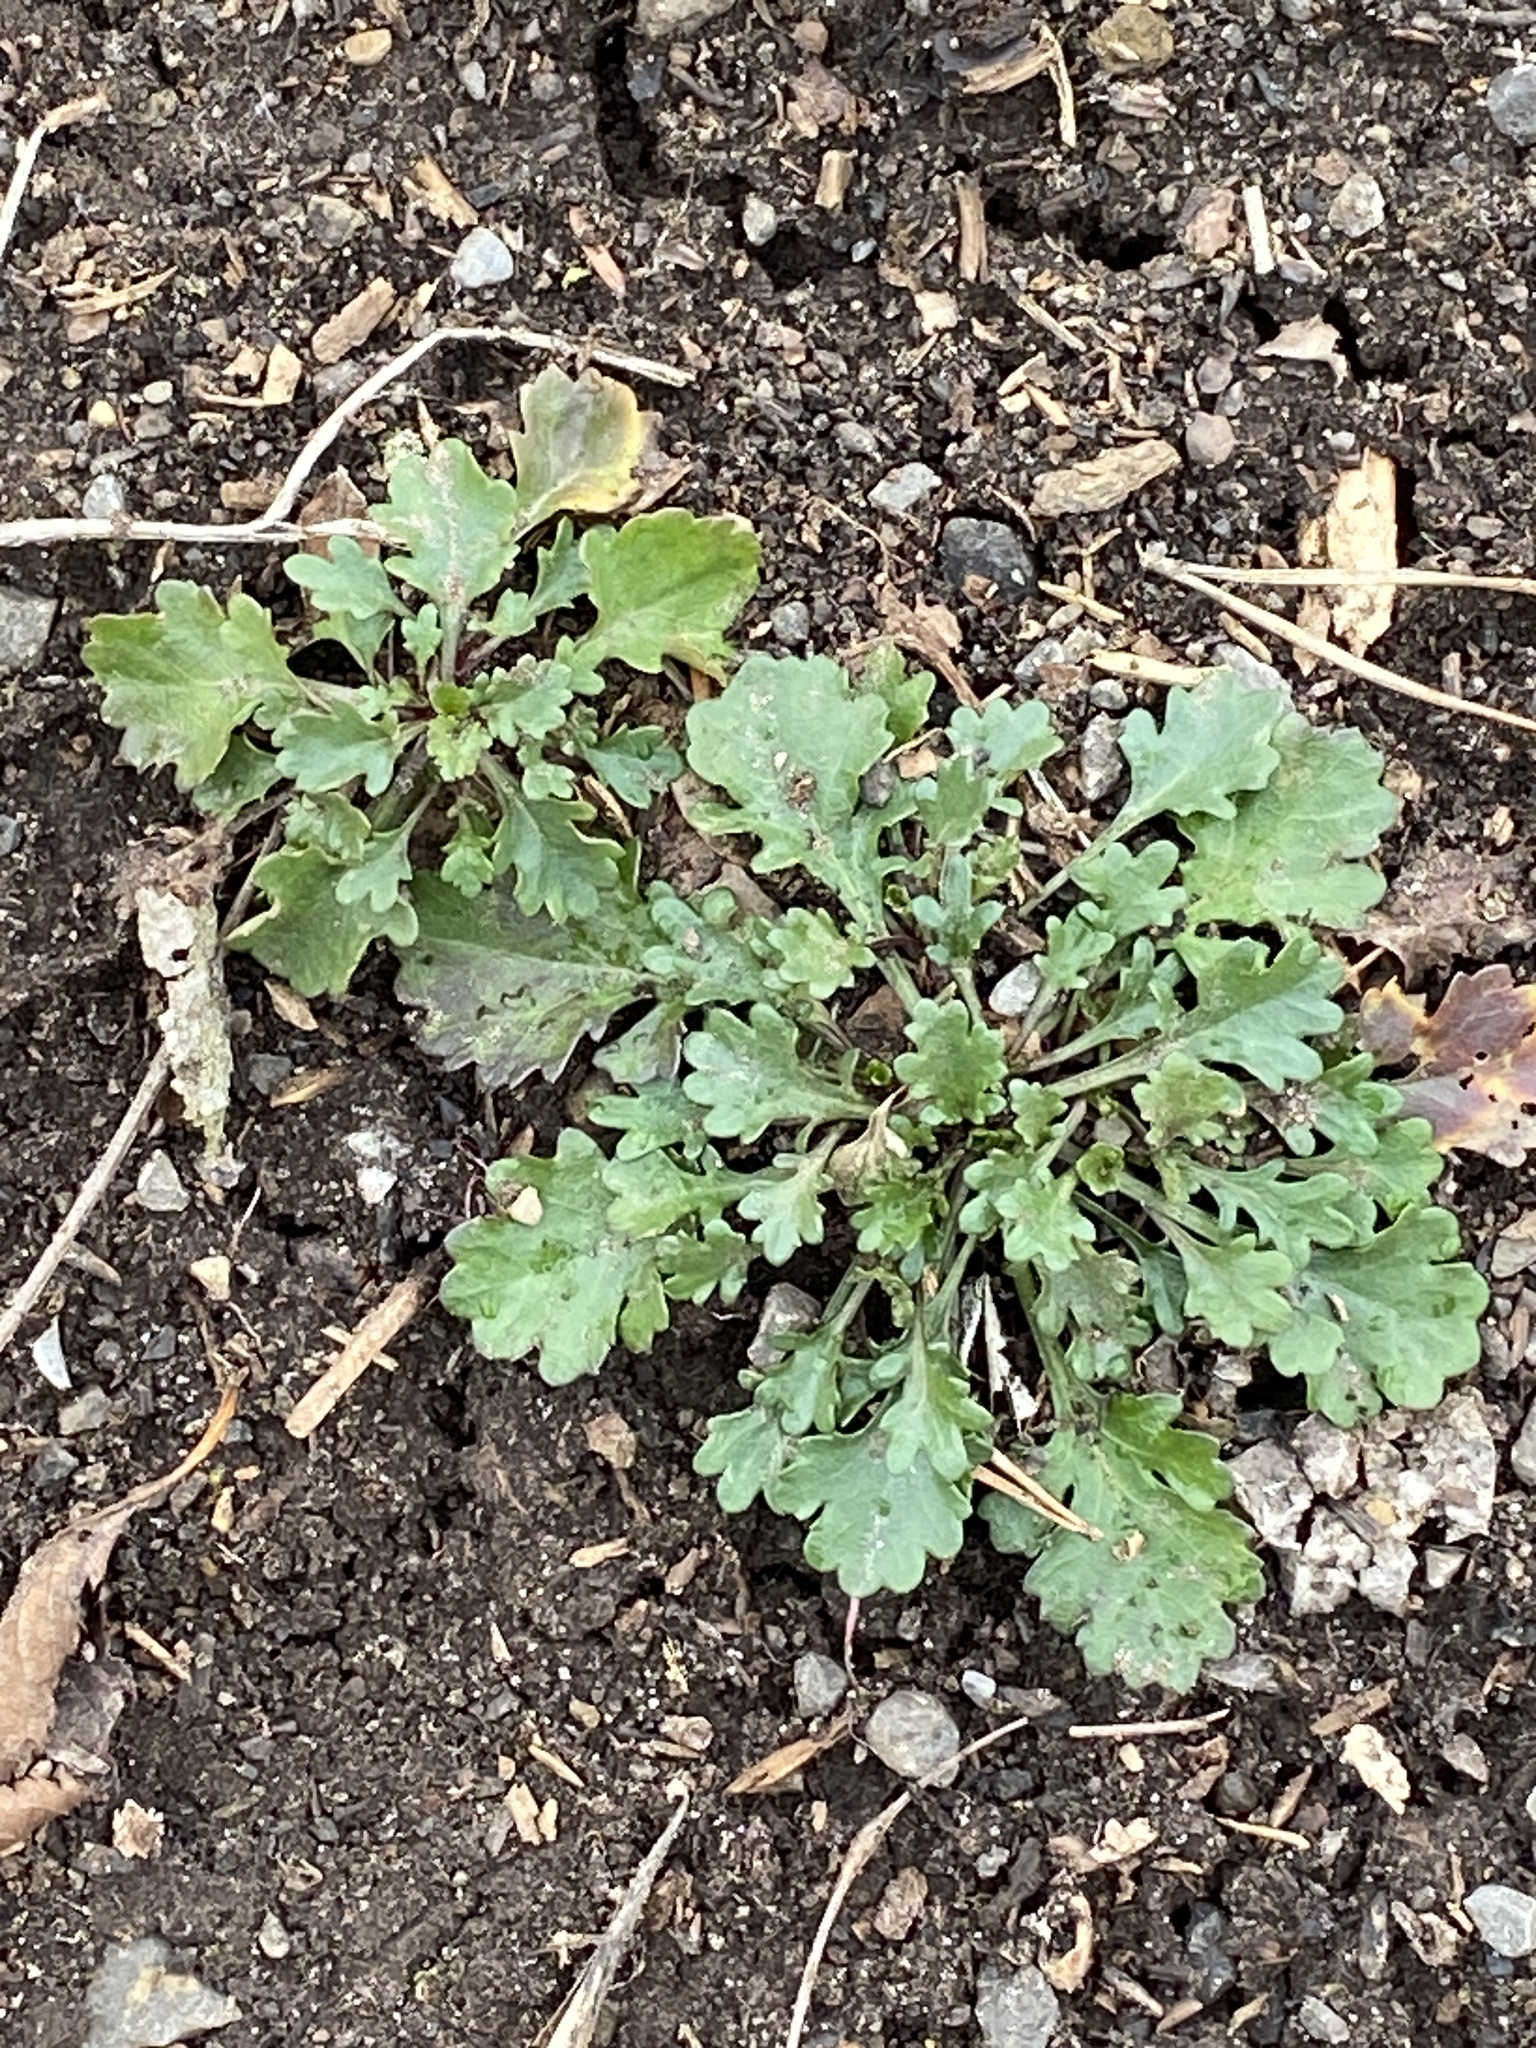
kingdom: Plantae
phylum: Tracheophyta
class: Magnoliopsida
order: Asterales
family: Asteraceae
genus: Leucanthemum
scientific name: Leucanthemum vulgare
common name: Oxeye daisy
